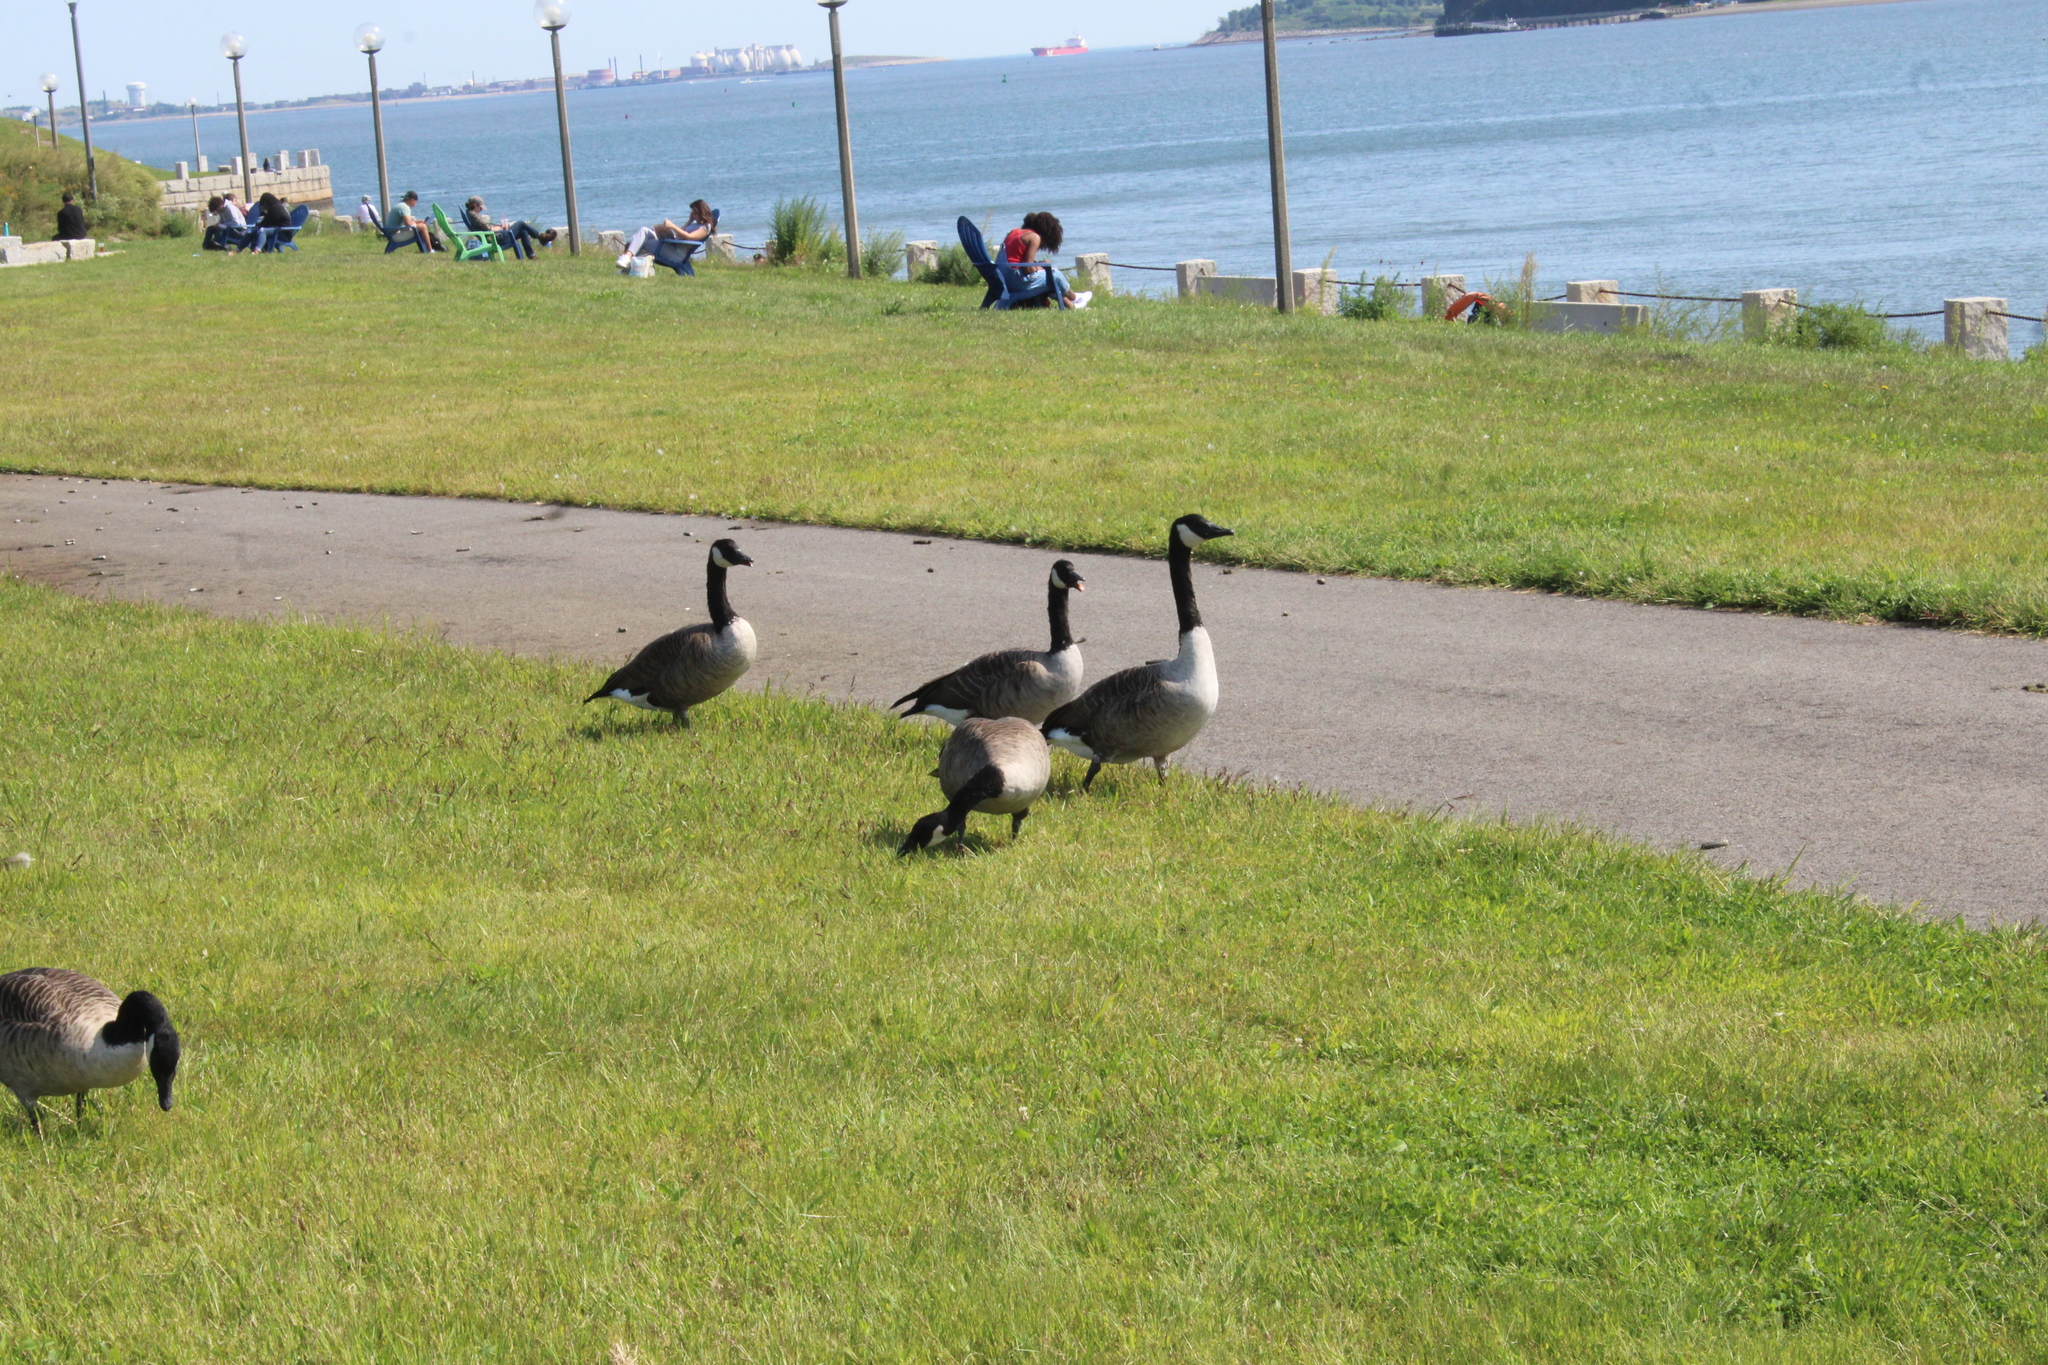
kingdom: Animalia
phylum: Chordata
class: Aves
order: Anseriformes
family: Anatidae
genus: Branta
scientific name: Branta canadensis
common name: Canada goose
